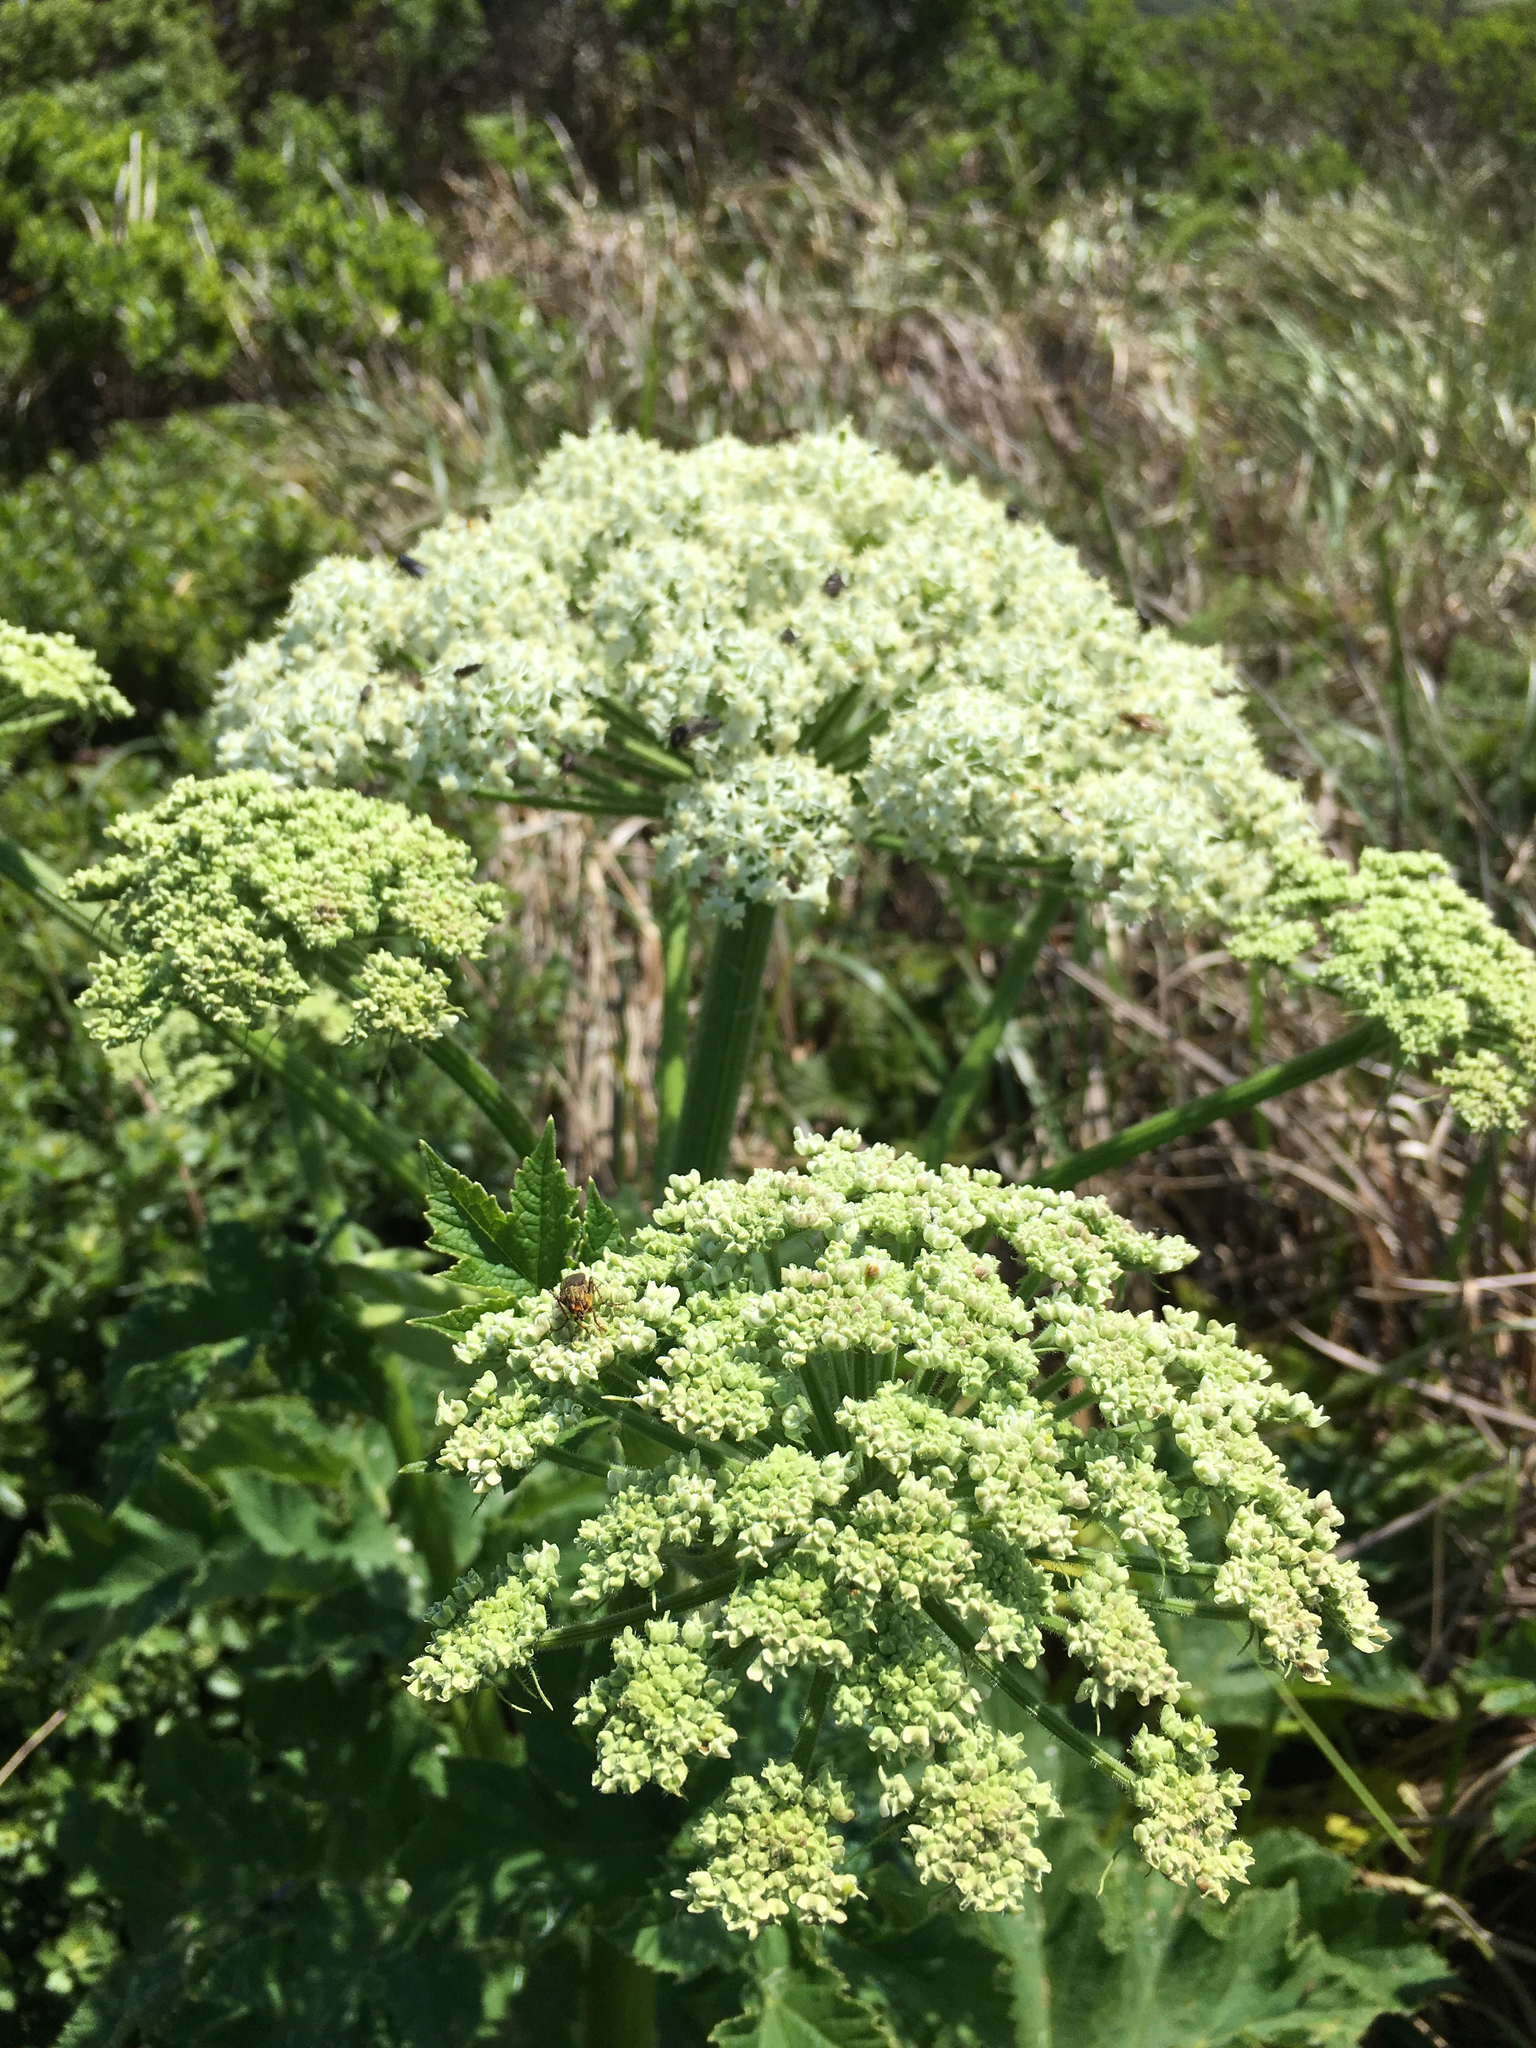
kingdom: Plantae
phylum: Tracheophyta
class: Magnoliopsida
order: Apiales
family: Apiaceae
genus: Heracleum
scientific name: Heracleum maximum
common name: American cow parsnip
